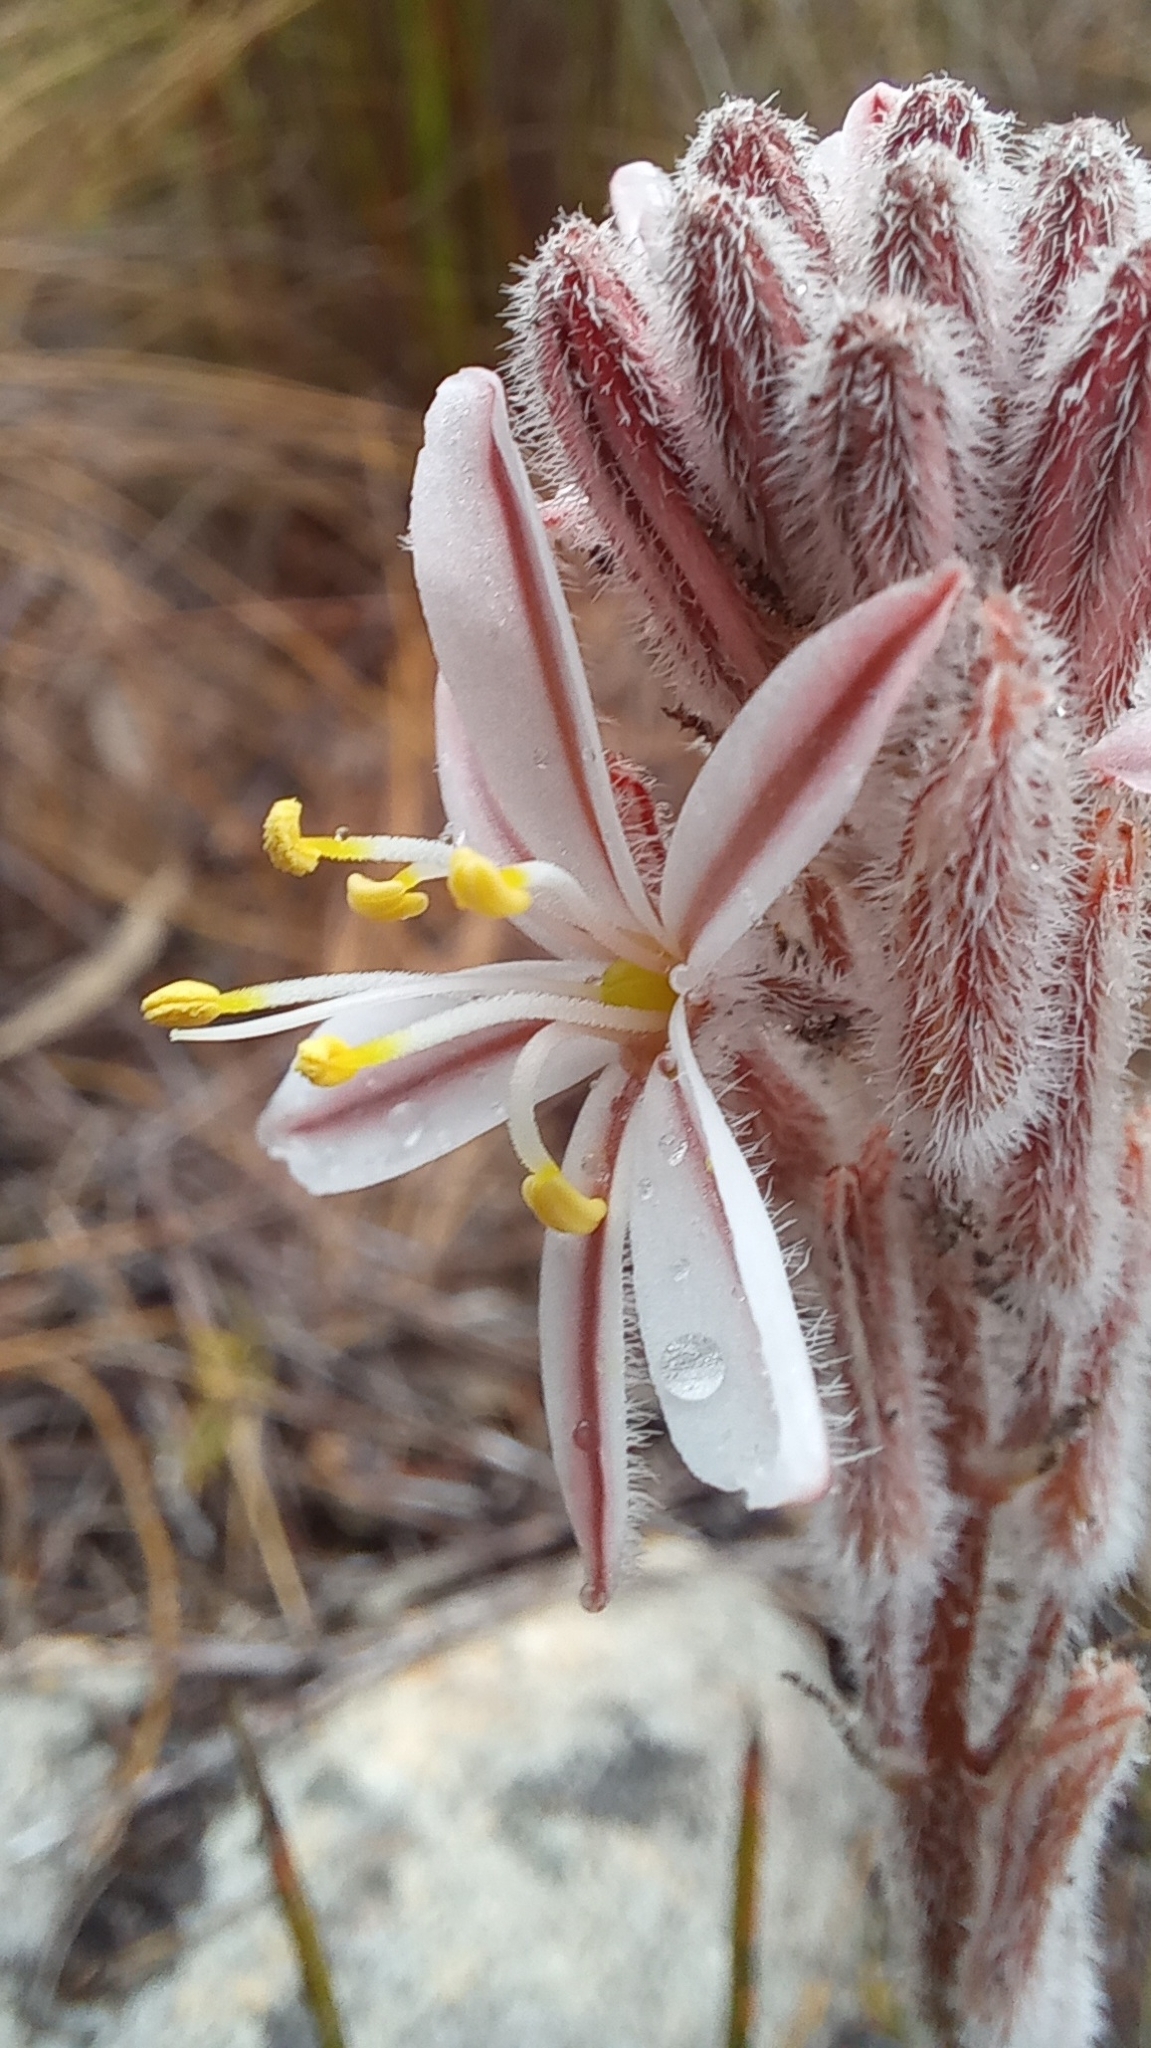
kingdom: Plantae
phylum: Tracheophyta
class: Liliopsida
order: Asparagales
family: Asphodelaceae
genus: Trachyandra
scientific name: Trachyandra hirsutiflora
